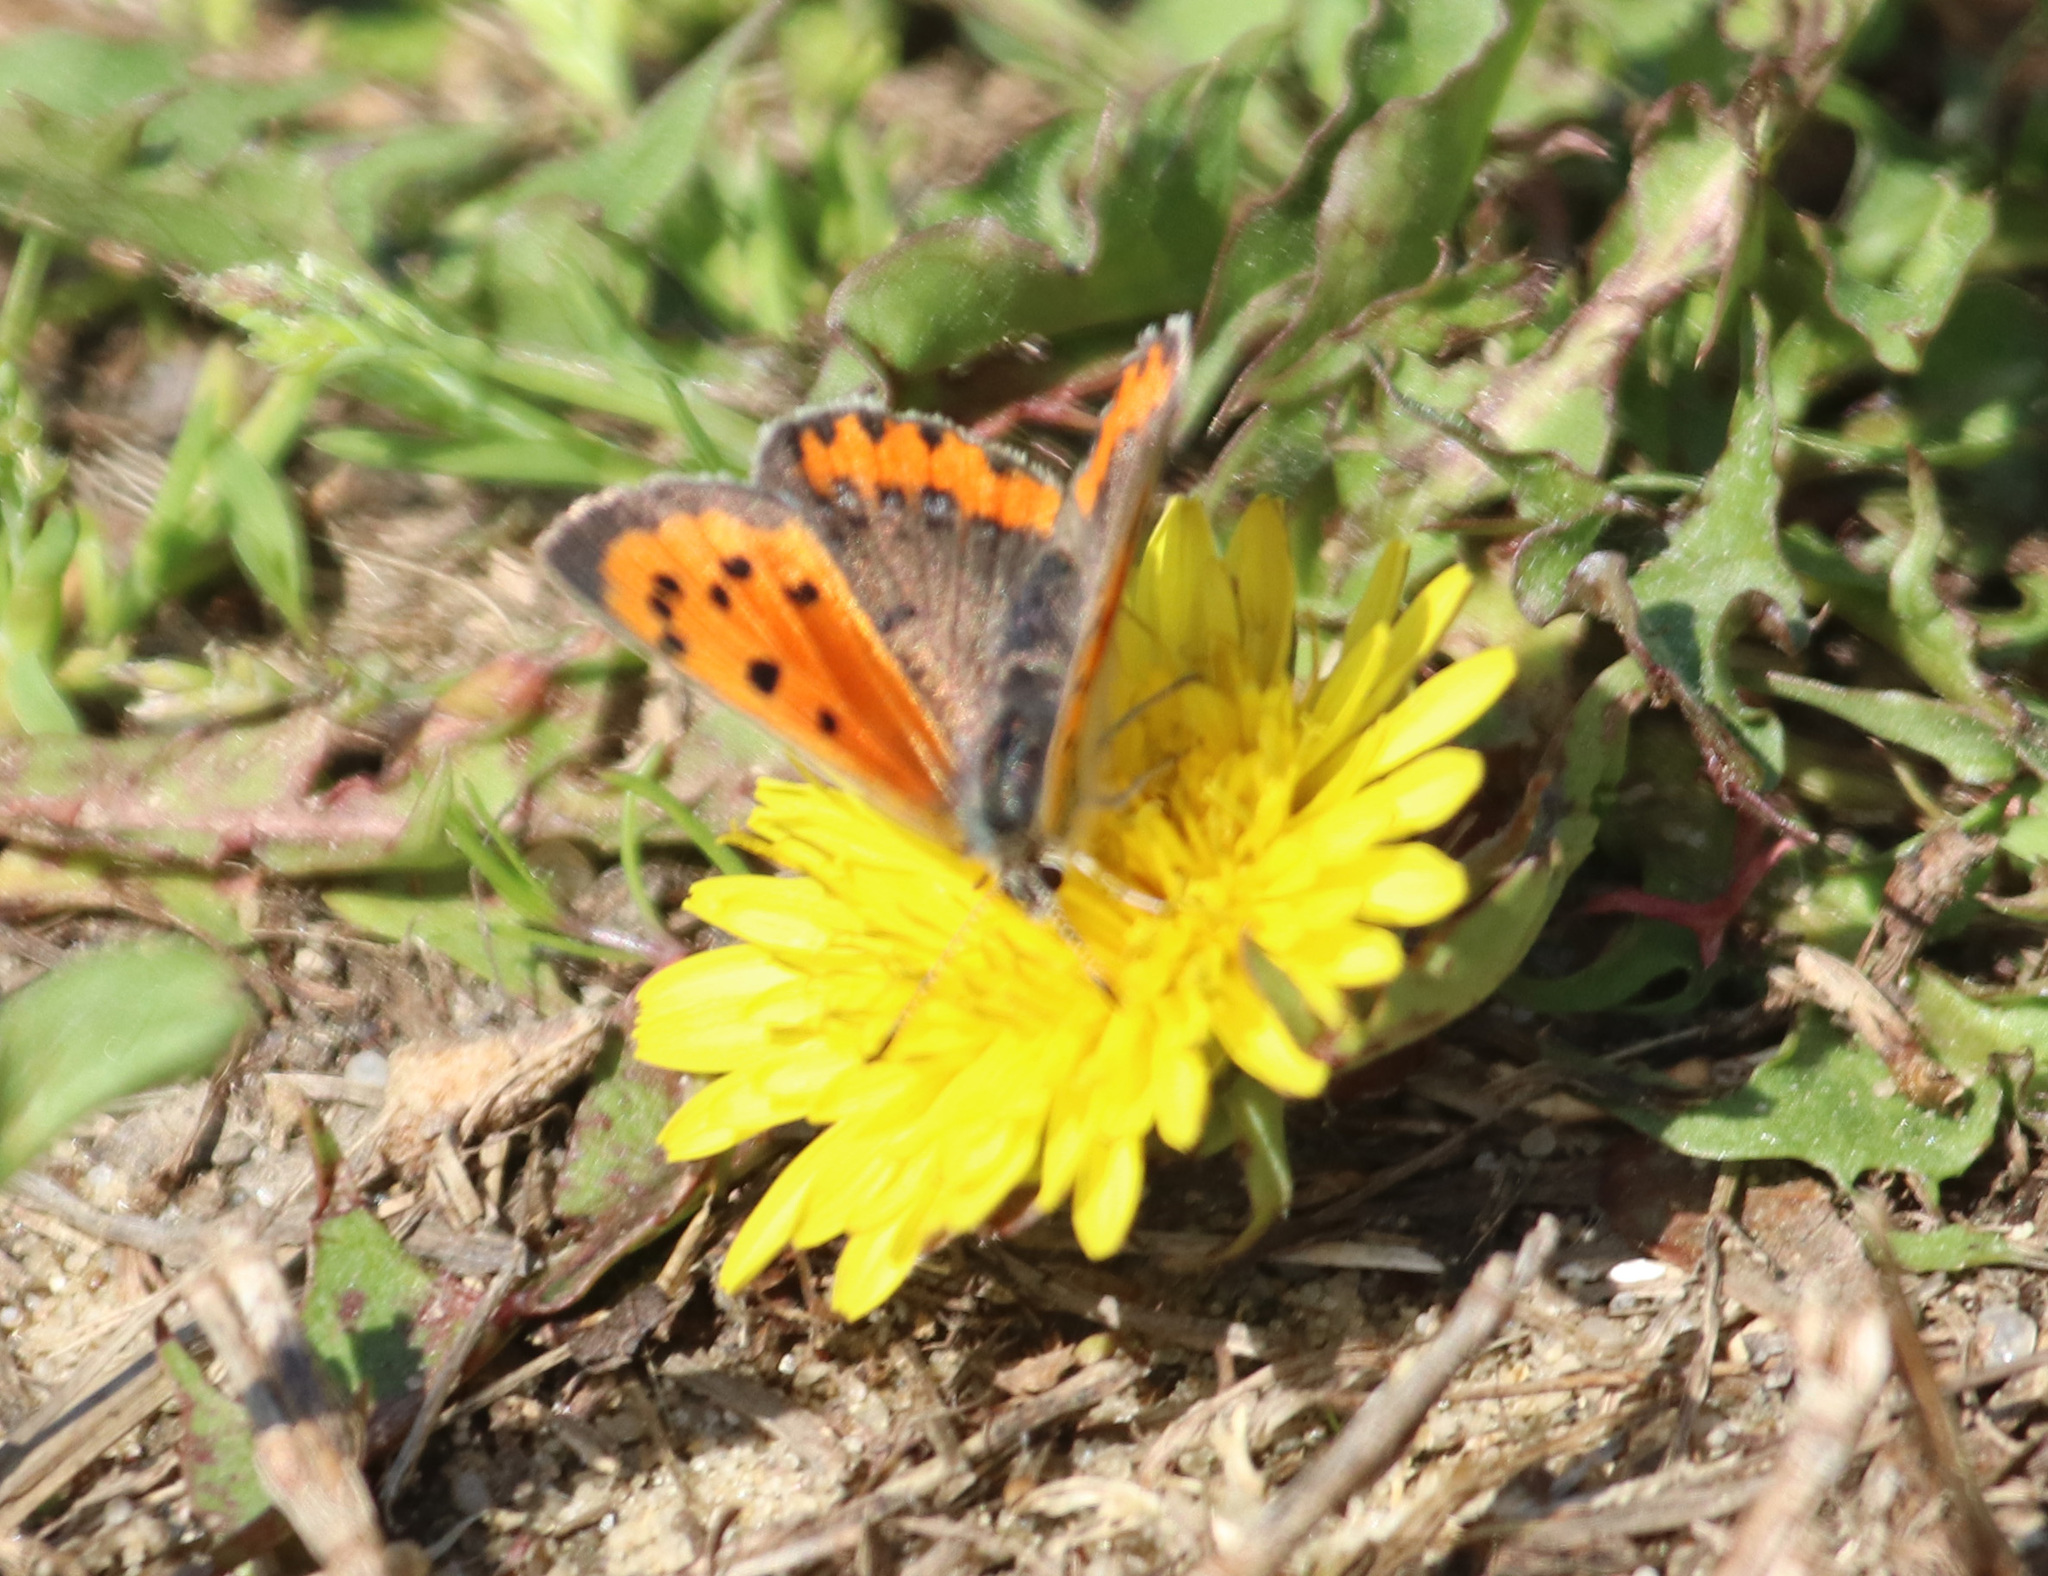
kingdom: Animalia
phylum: Arthropoda
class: Insecta
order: Lepidoptera
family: Lycaenidae
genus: Lycaena
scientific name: Lycaena hypophlaeas
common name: American copper
